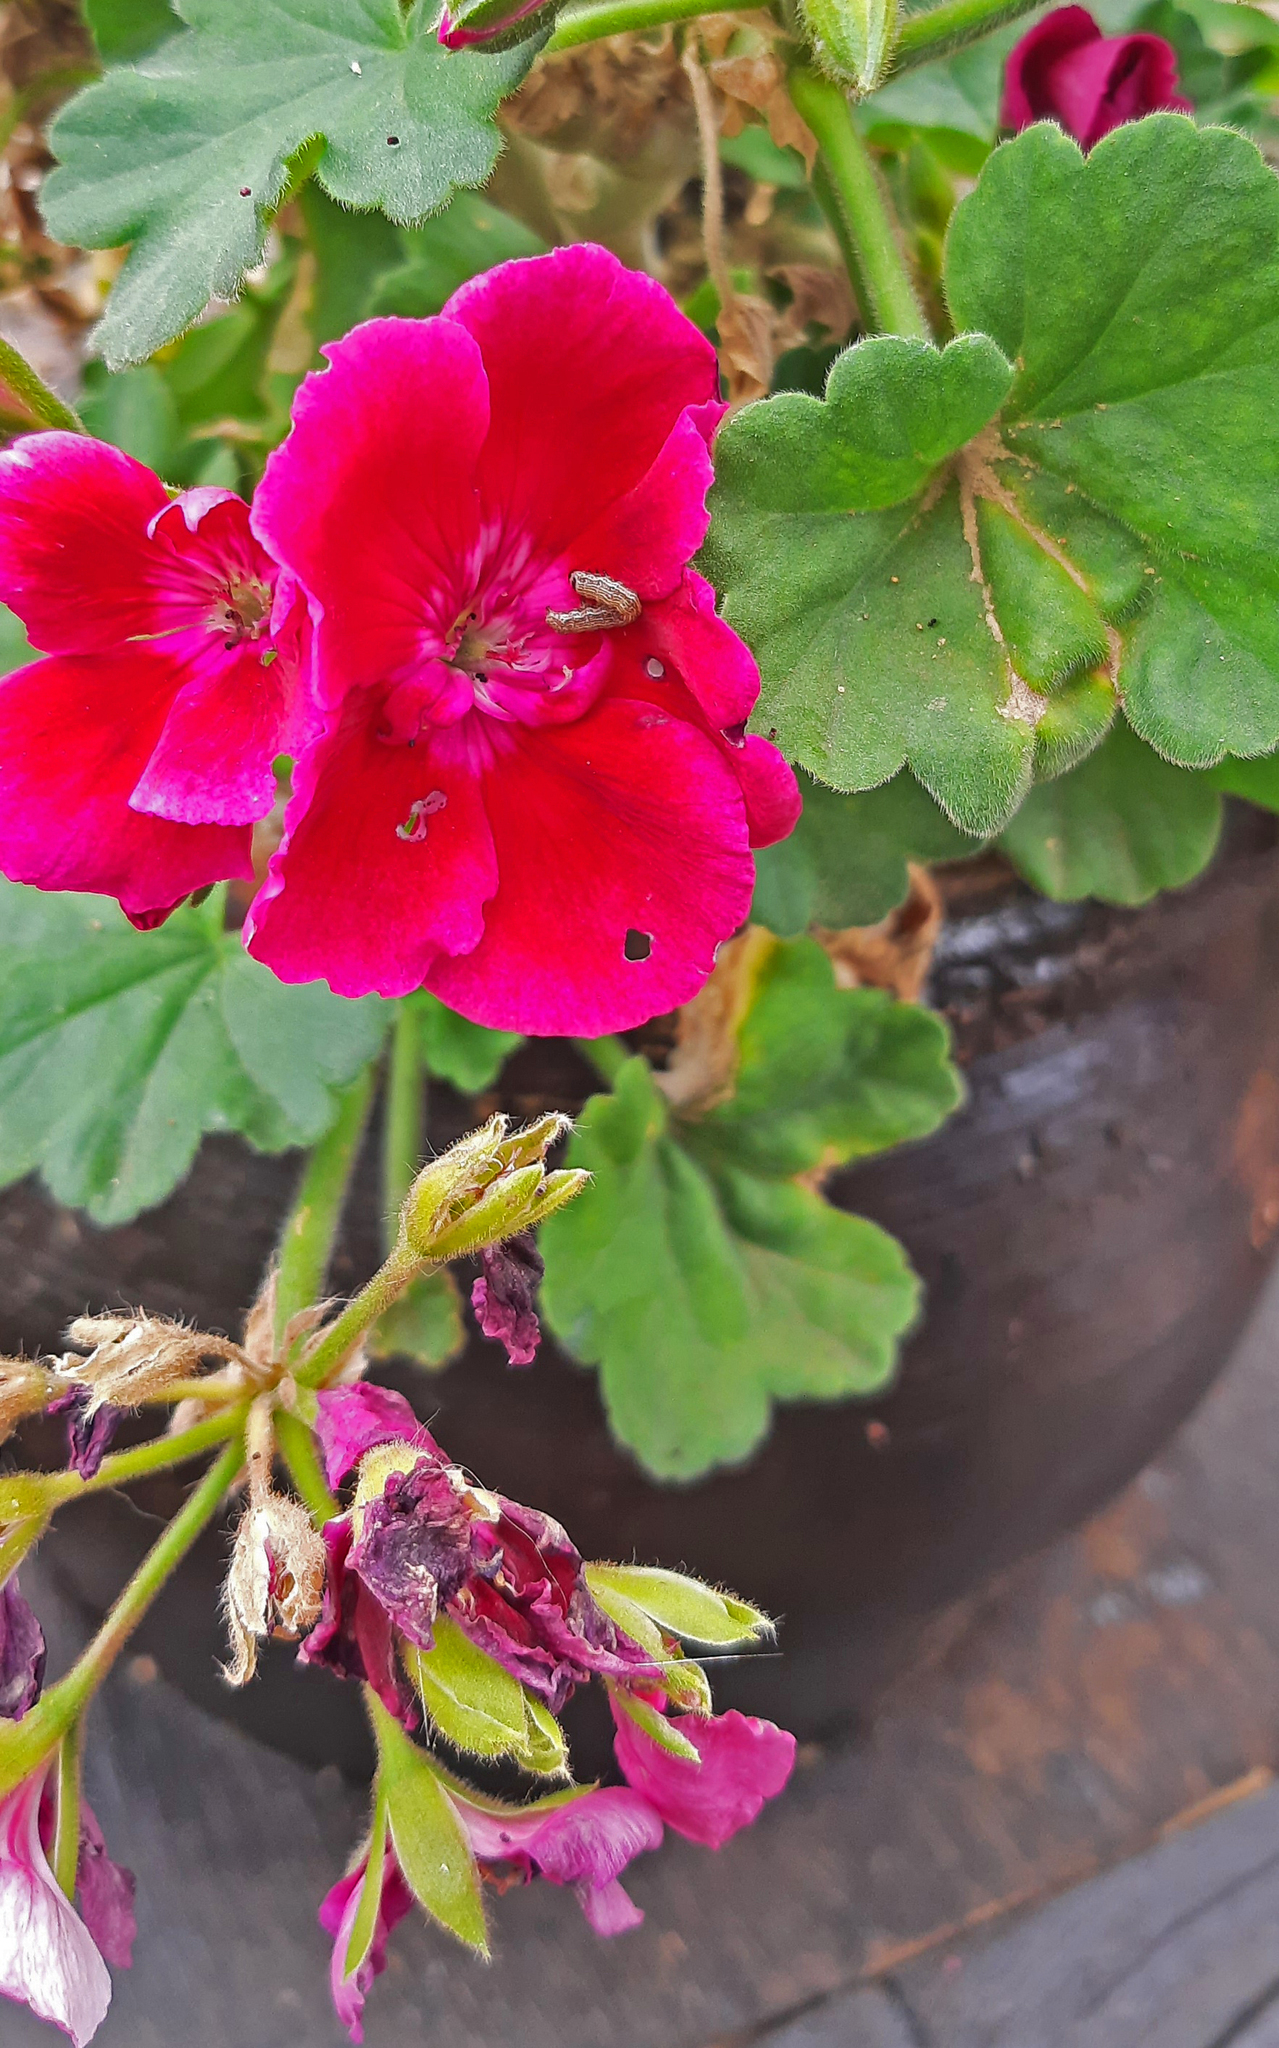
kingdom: Animalia
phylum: Arthropoda
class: Insecta
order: Lepidoptera
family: Lycaenidae
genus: Cacyreus
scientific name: Cacyreus marshalli
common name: Geranium bronze
